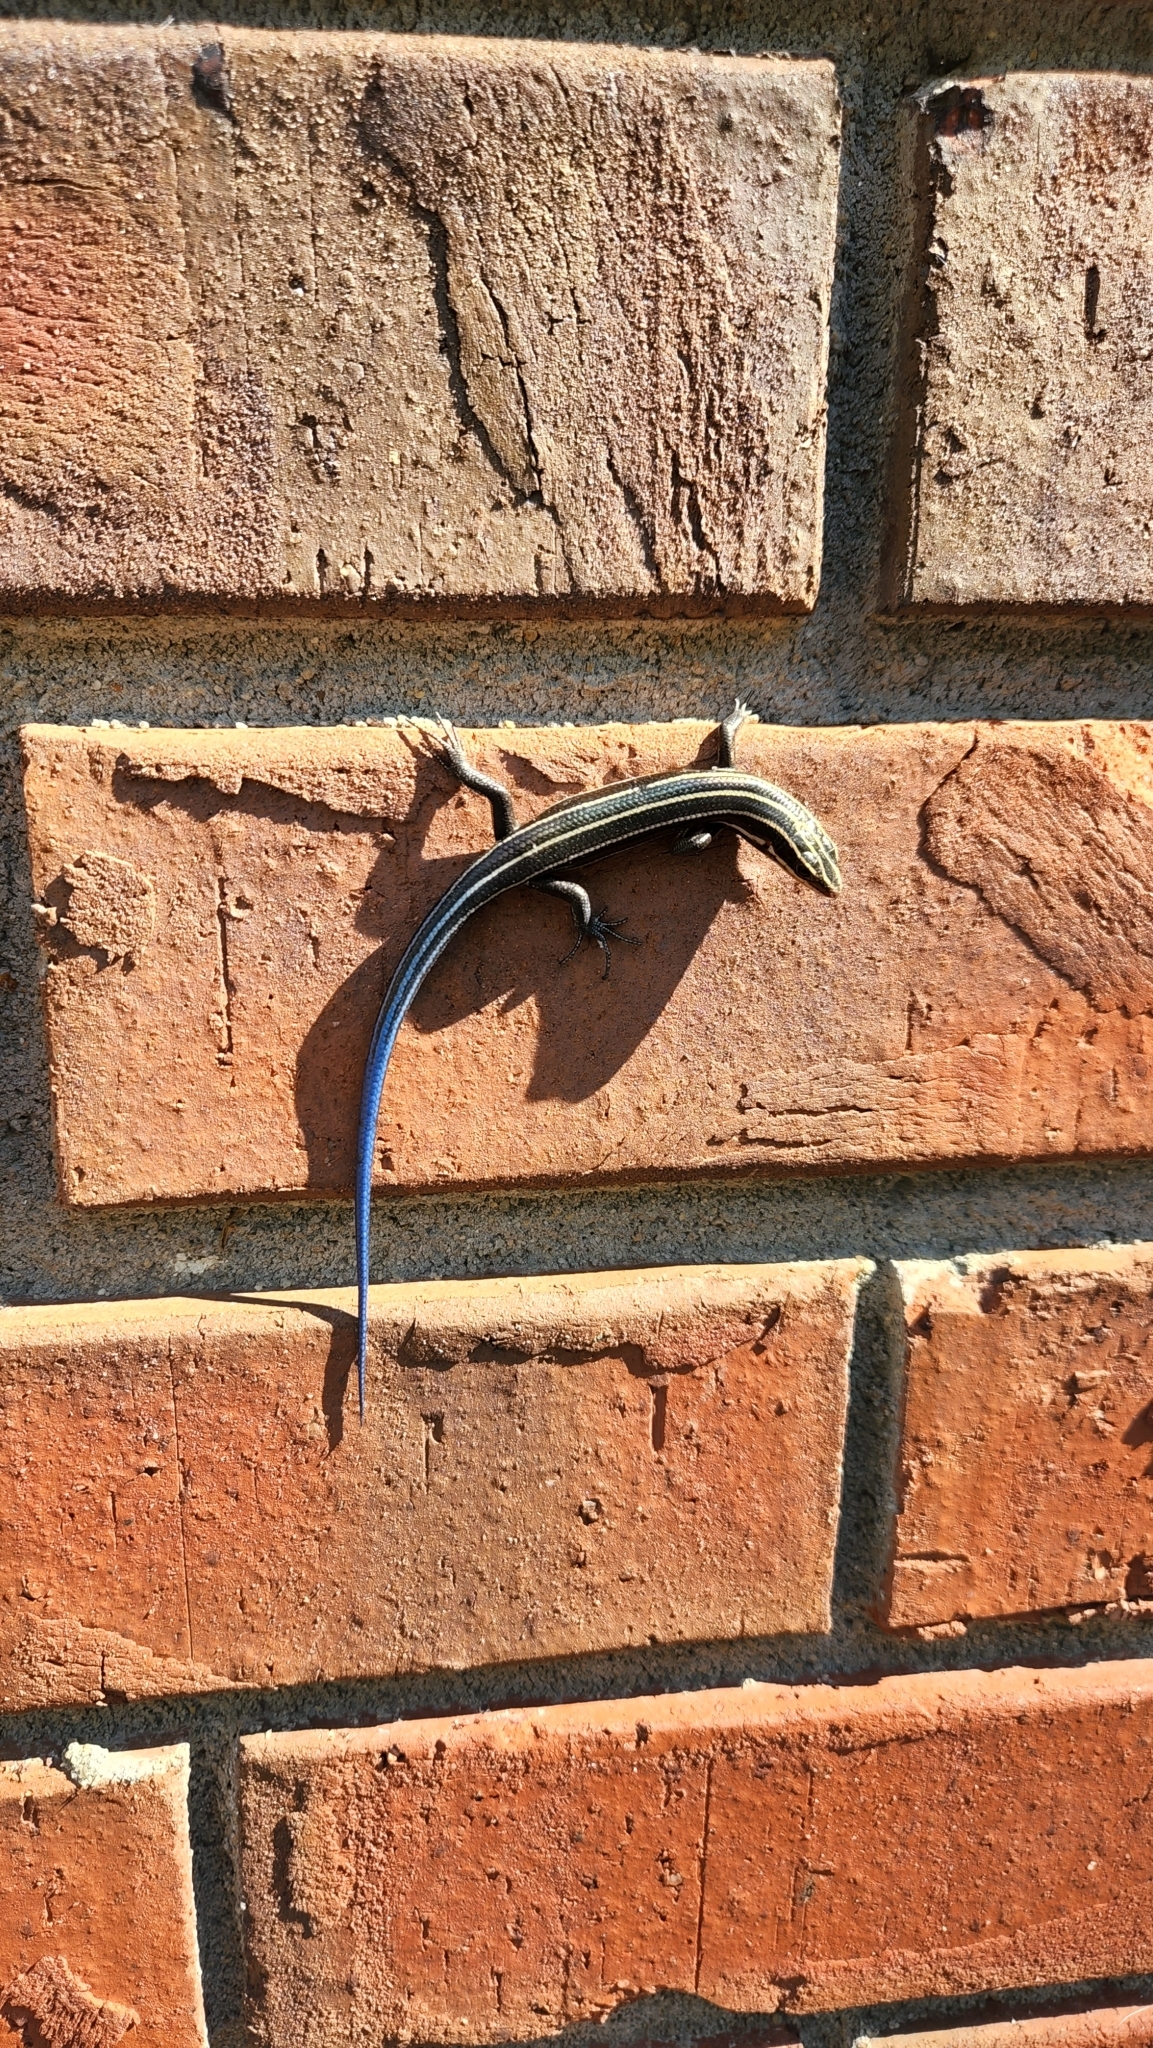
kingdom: Animalia
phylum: Chordata
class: Squamata
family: Scincidae
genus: Plestiodon
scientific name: Plestiodon fasciatus
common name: Five-lined skink
